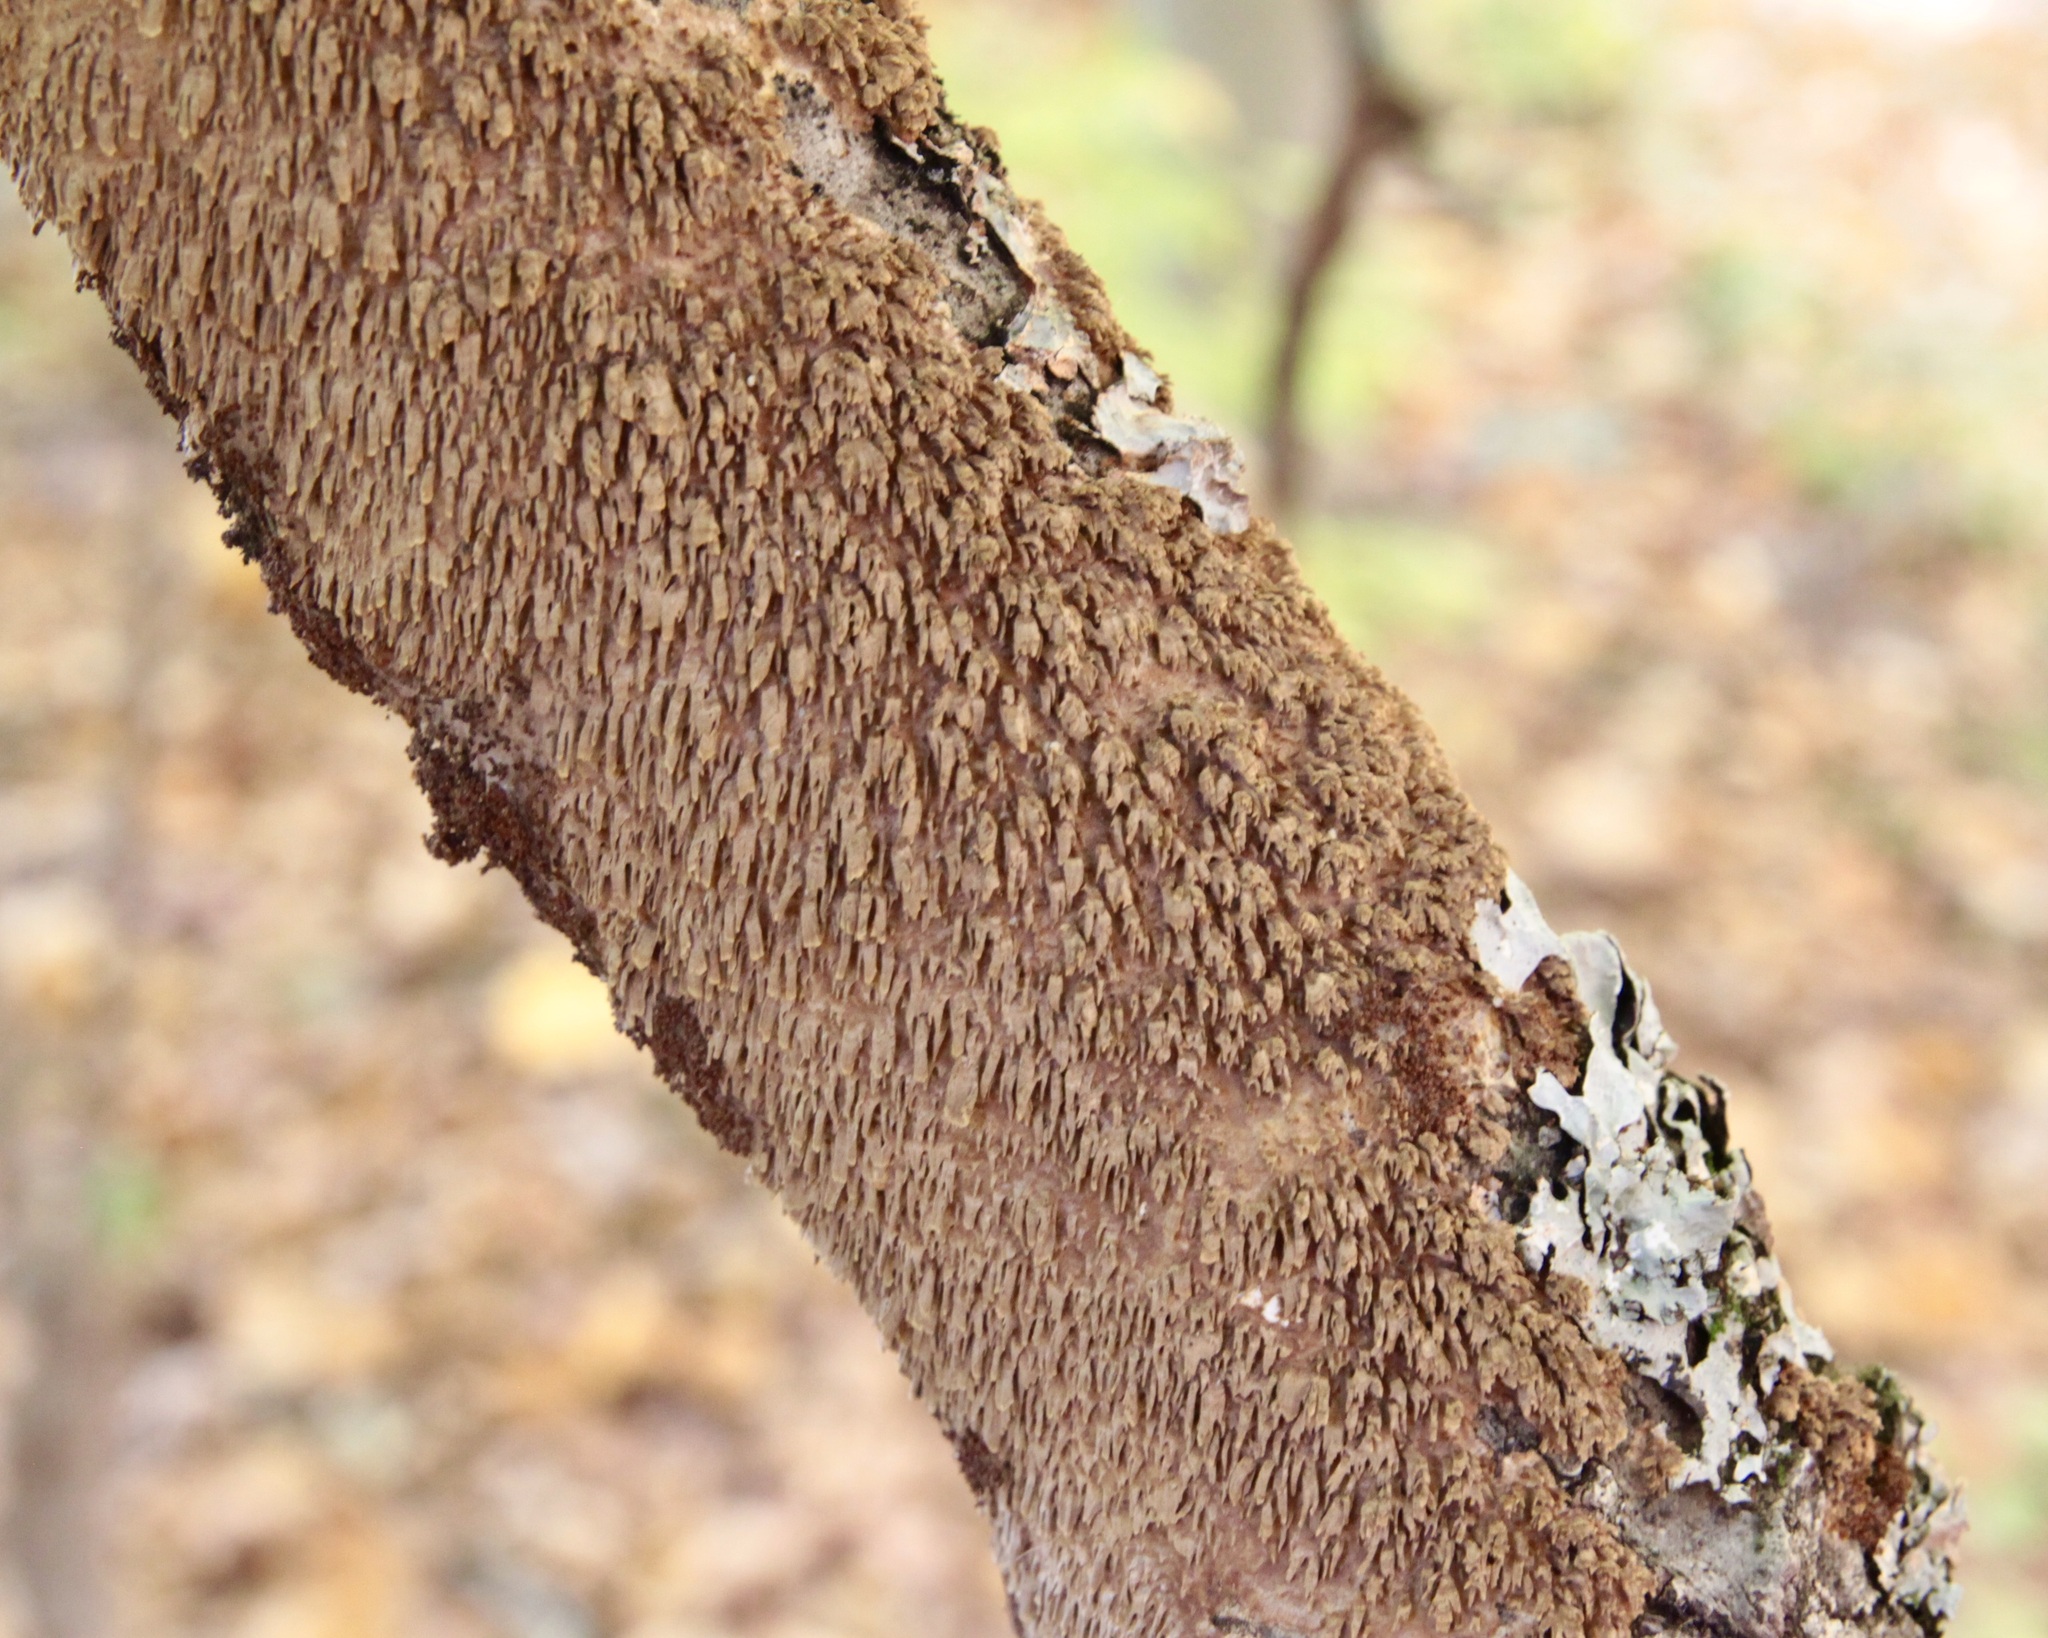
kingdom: Fungi
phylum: Basidiomycota
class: Agaricomycetes
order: Hymenochaetales
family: Hymenochaetaceae
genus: Hydnoporia
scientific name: Hydnoporia olivacea
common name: Brown-toothed crust fungus
